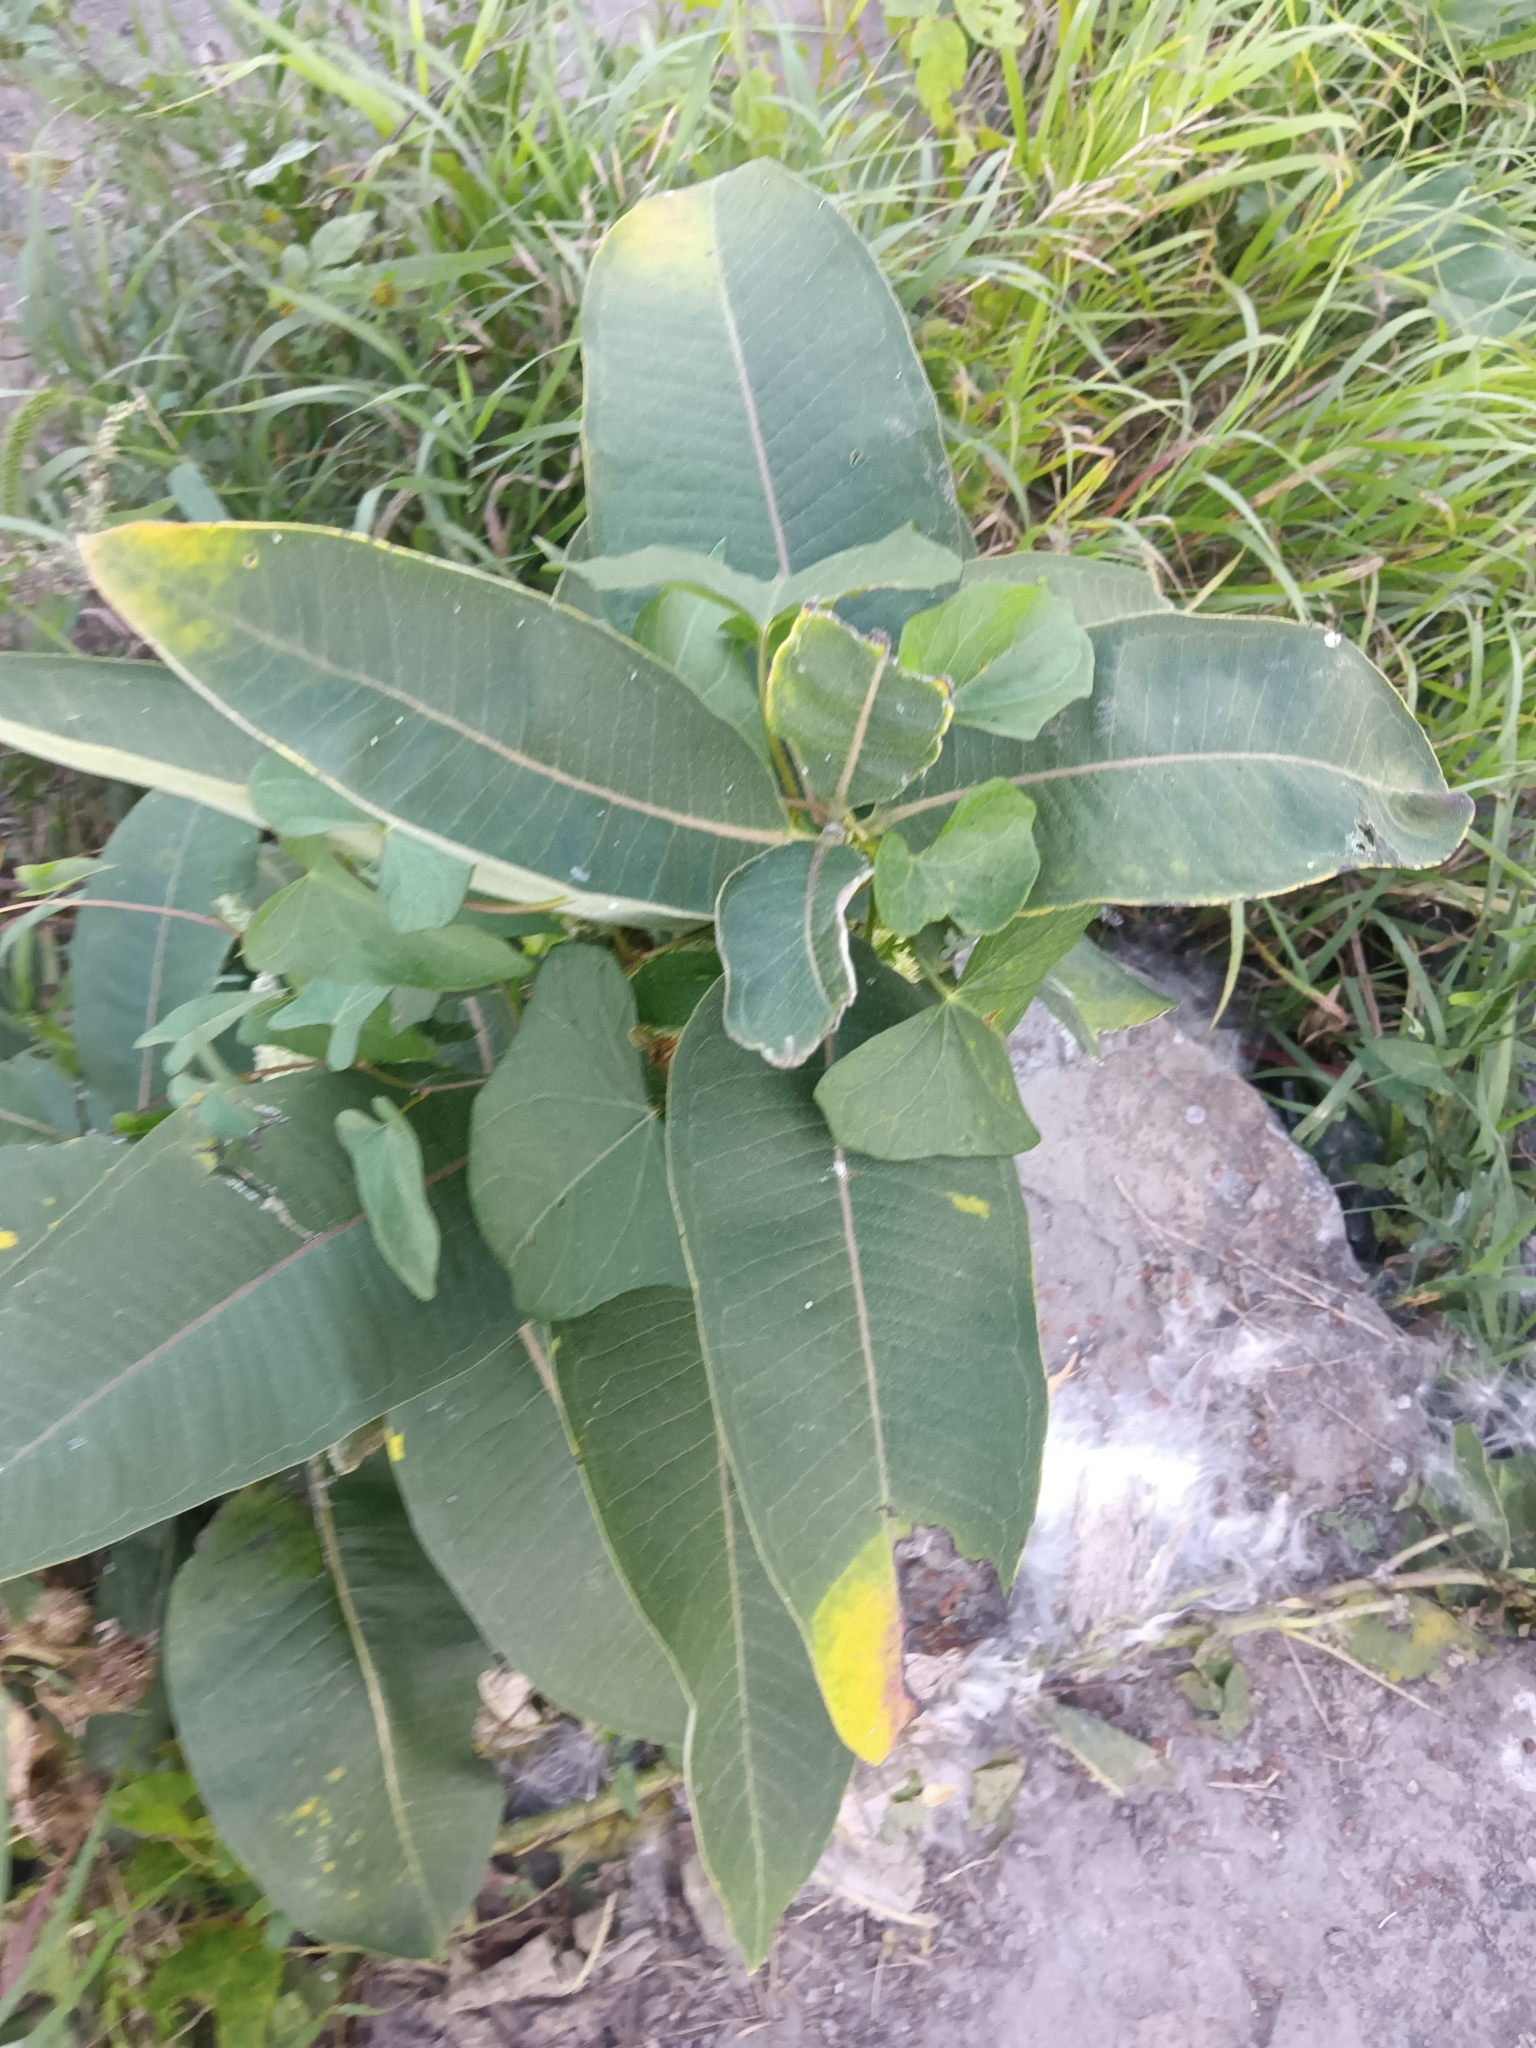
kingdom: Plantae
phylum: Tracheophyta
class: Magnoliopsida
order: Gentianales
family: Apocynaceae
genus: Asclepias
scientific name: Asclepias syriaca
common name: Common milkweed
